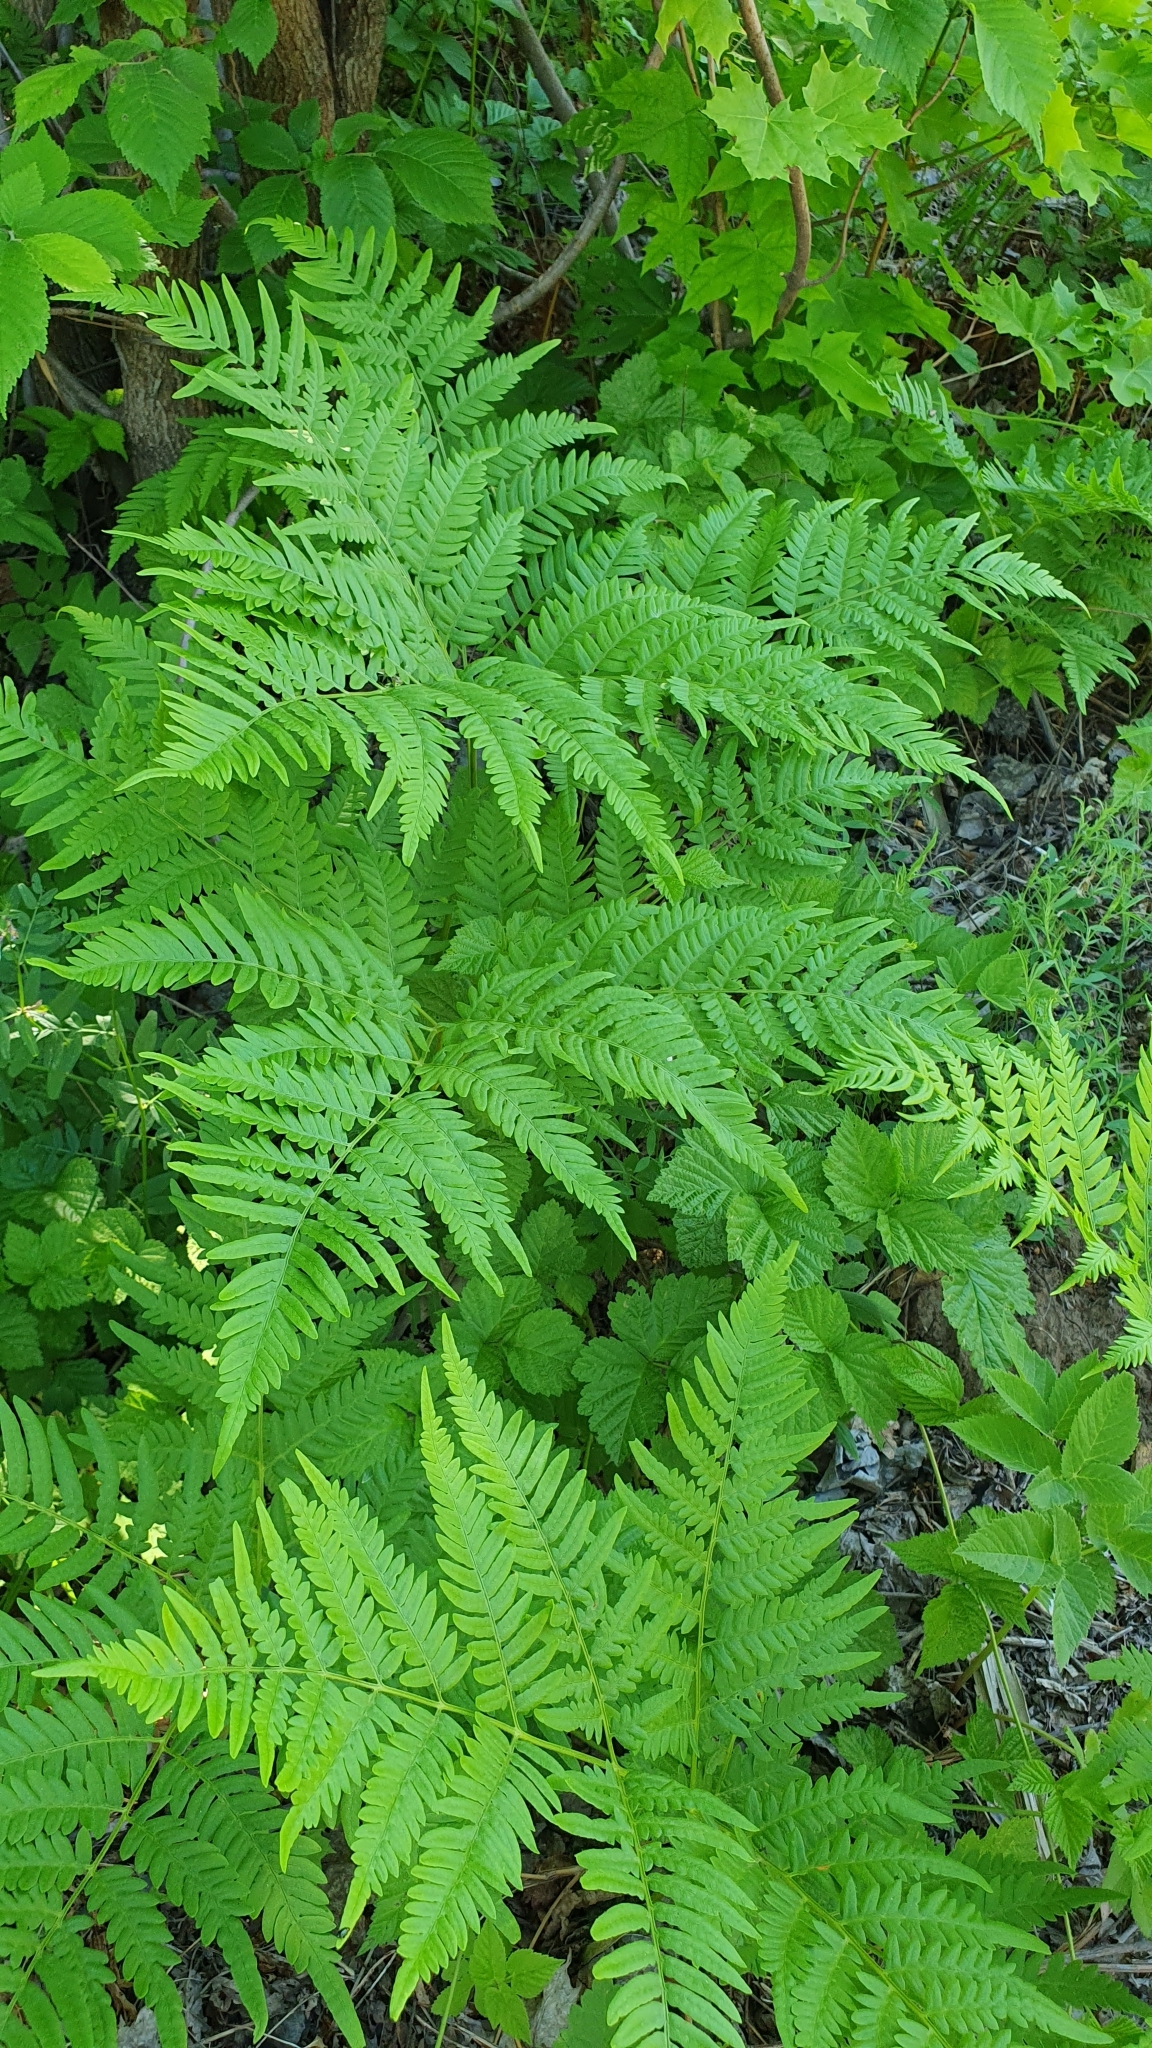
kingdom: Plantae
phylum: Tracheophyta
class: Polypodiopsida
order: Polypodiales
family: Dennstaedtiaceae
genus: Pteridium
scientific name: Pteridium aquilinum
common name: Bracken
